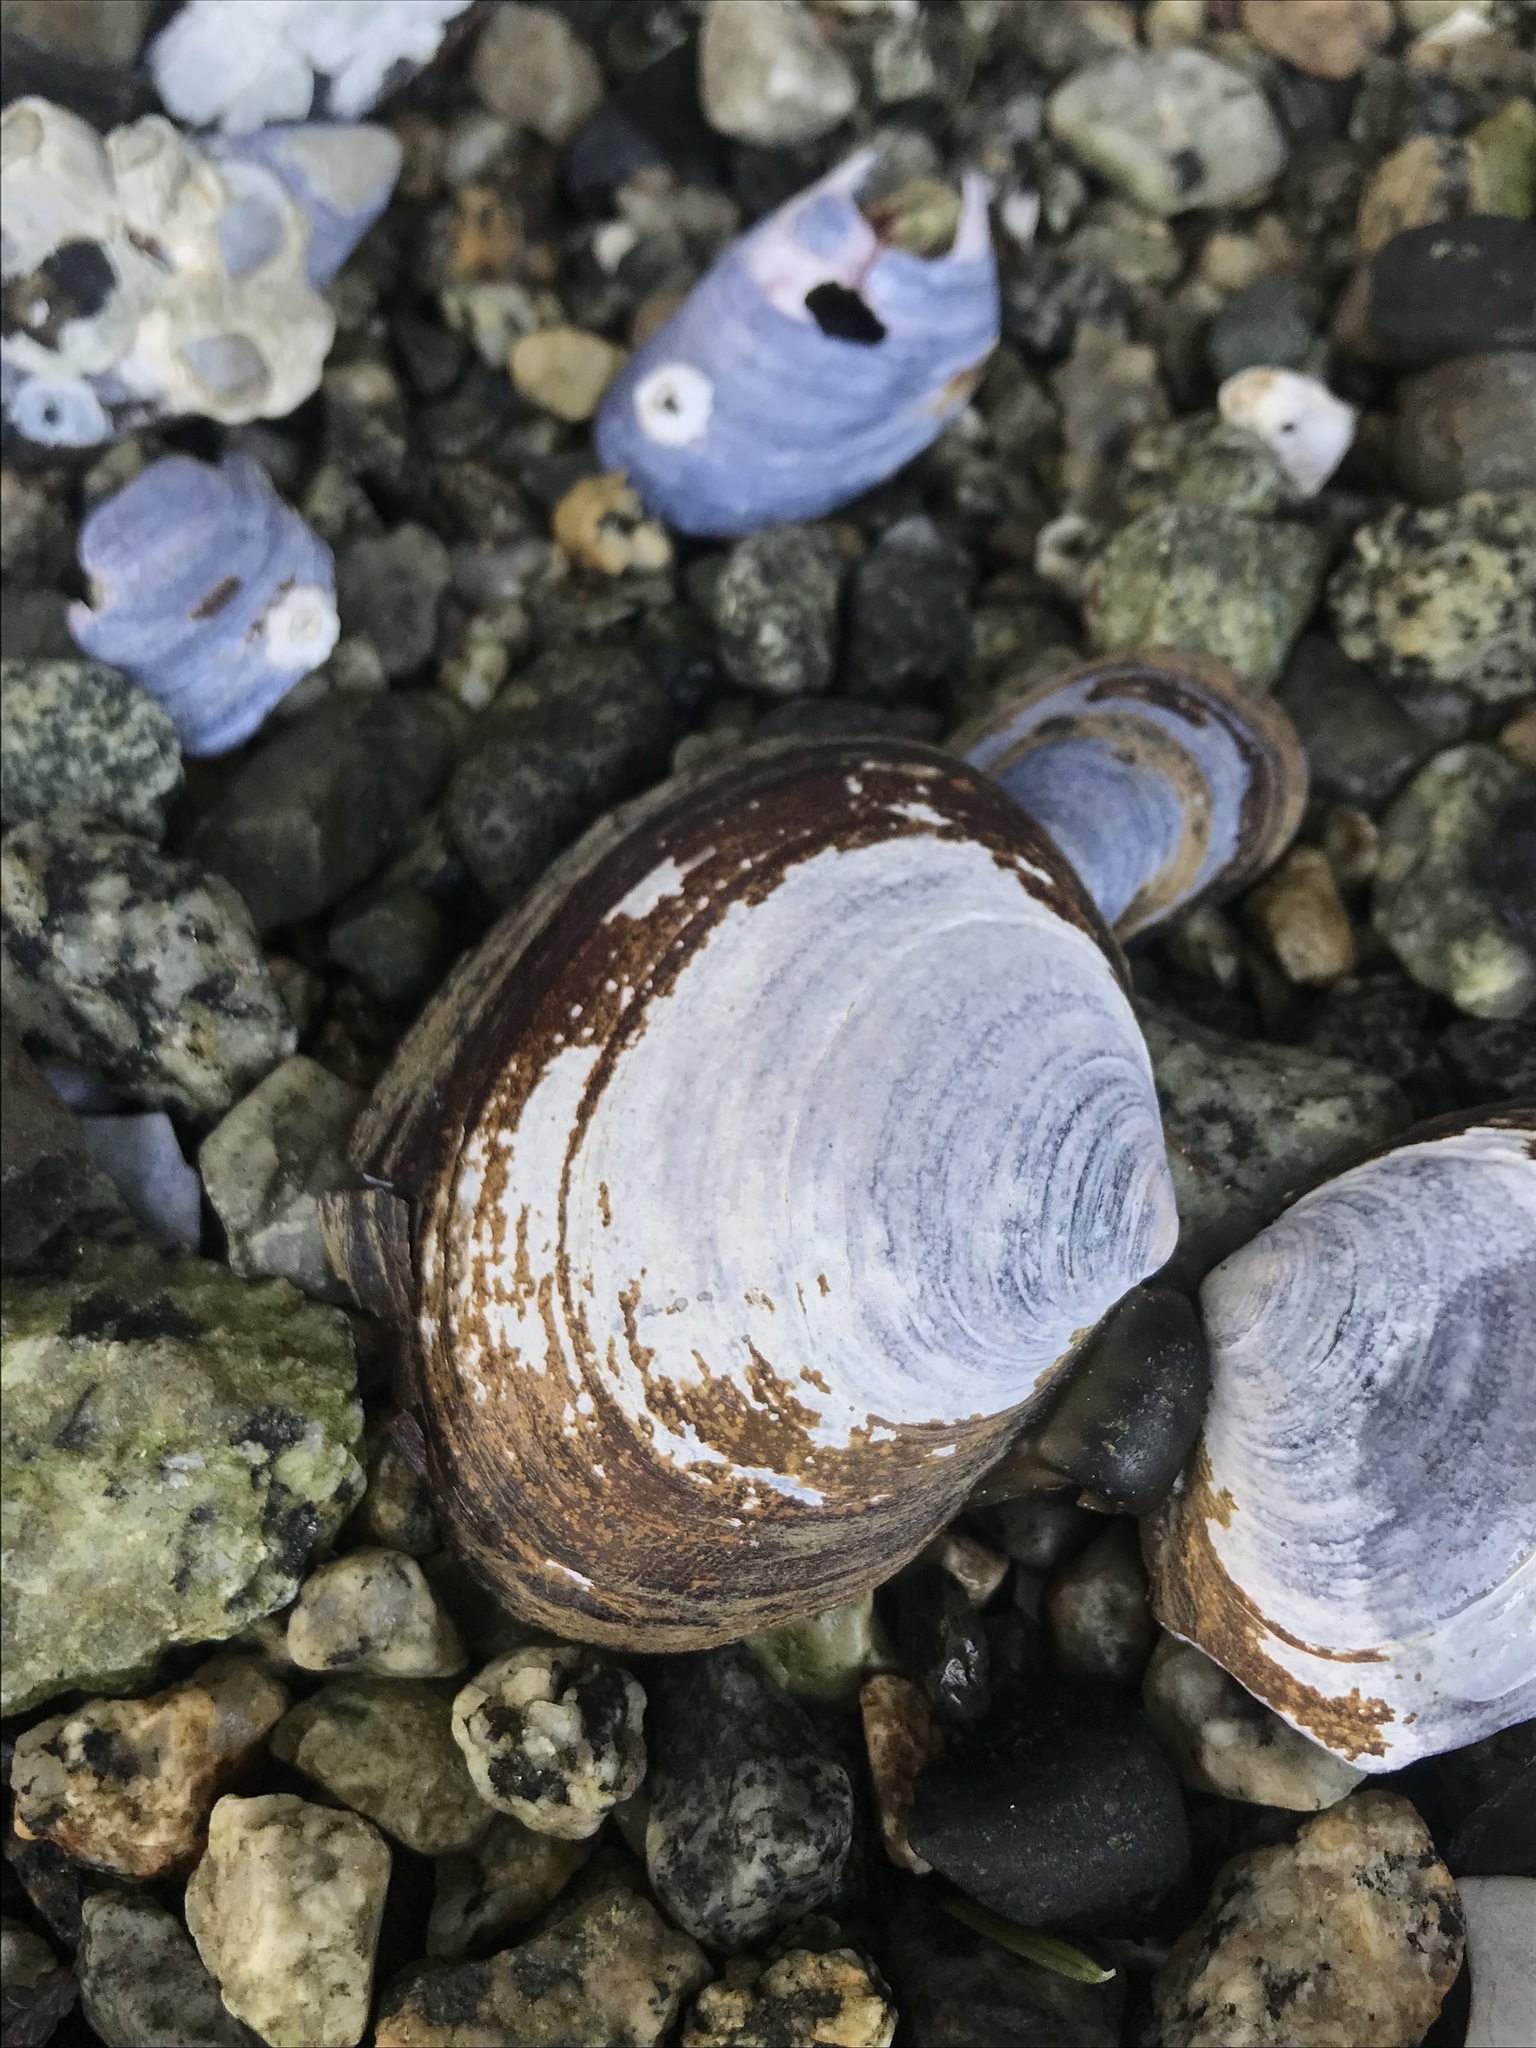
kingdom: Animalia
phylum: Mollusca
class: Bivalvia
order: Cardiida
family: Psammobiidae
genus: Nuttallia
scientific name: Nuttallia obscurata
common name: Purple mahogany-clam
